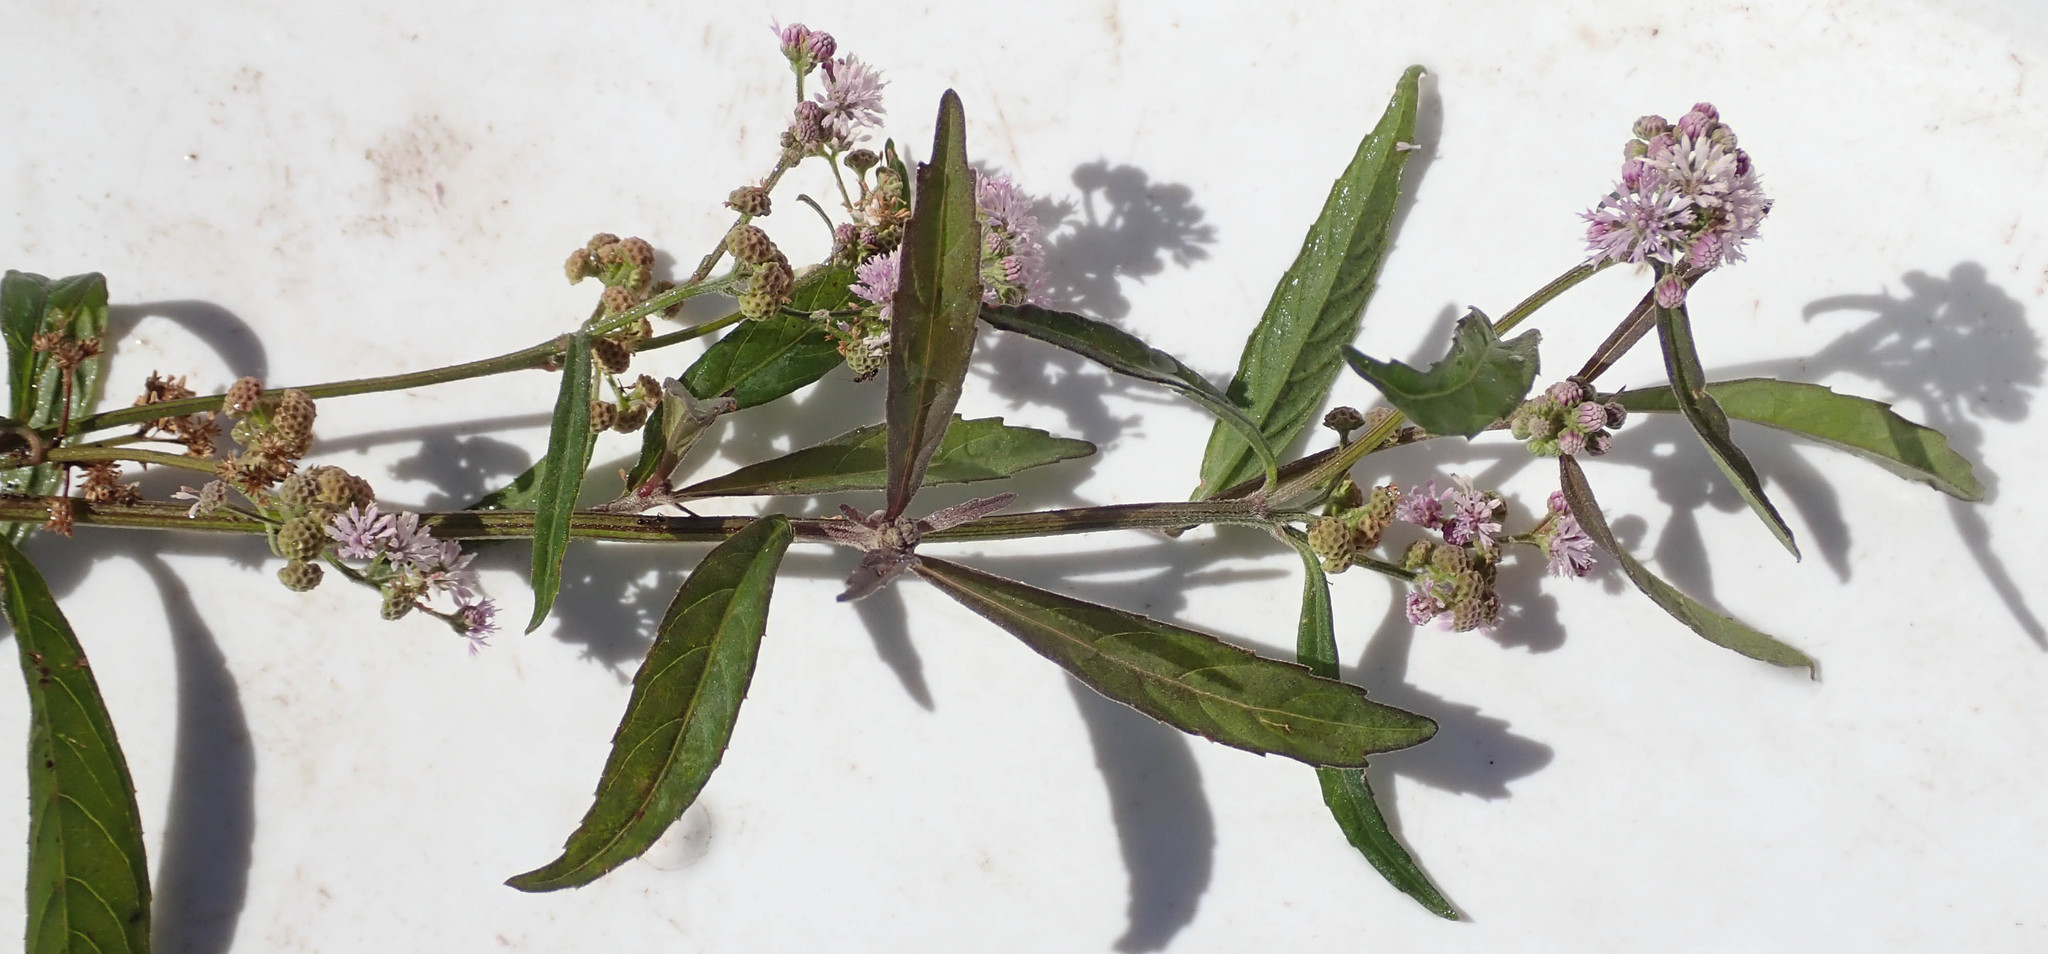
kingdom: Plantae
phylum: Tracheophyta
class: Magnoliopsida
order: Asterales
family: Asteraceae
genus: Ethulia
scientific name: Ethulia conyzoides
